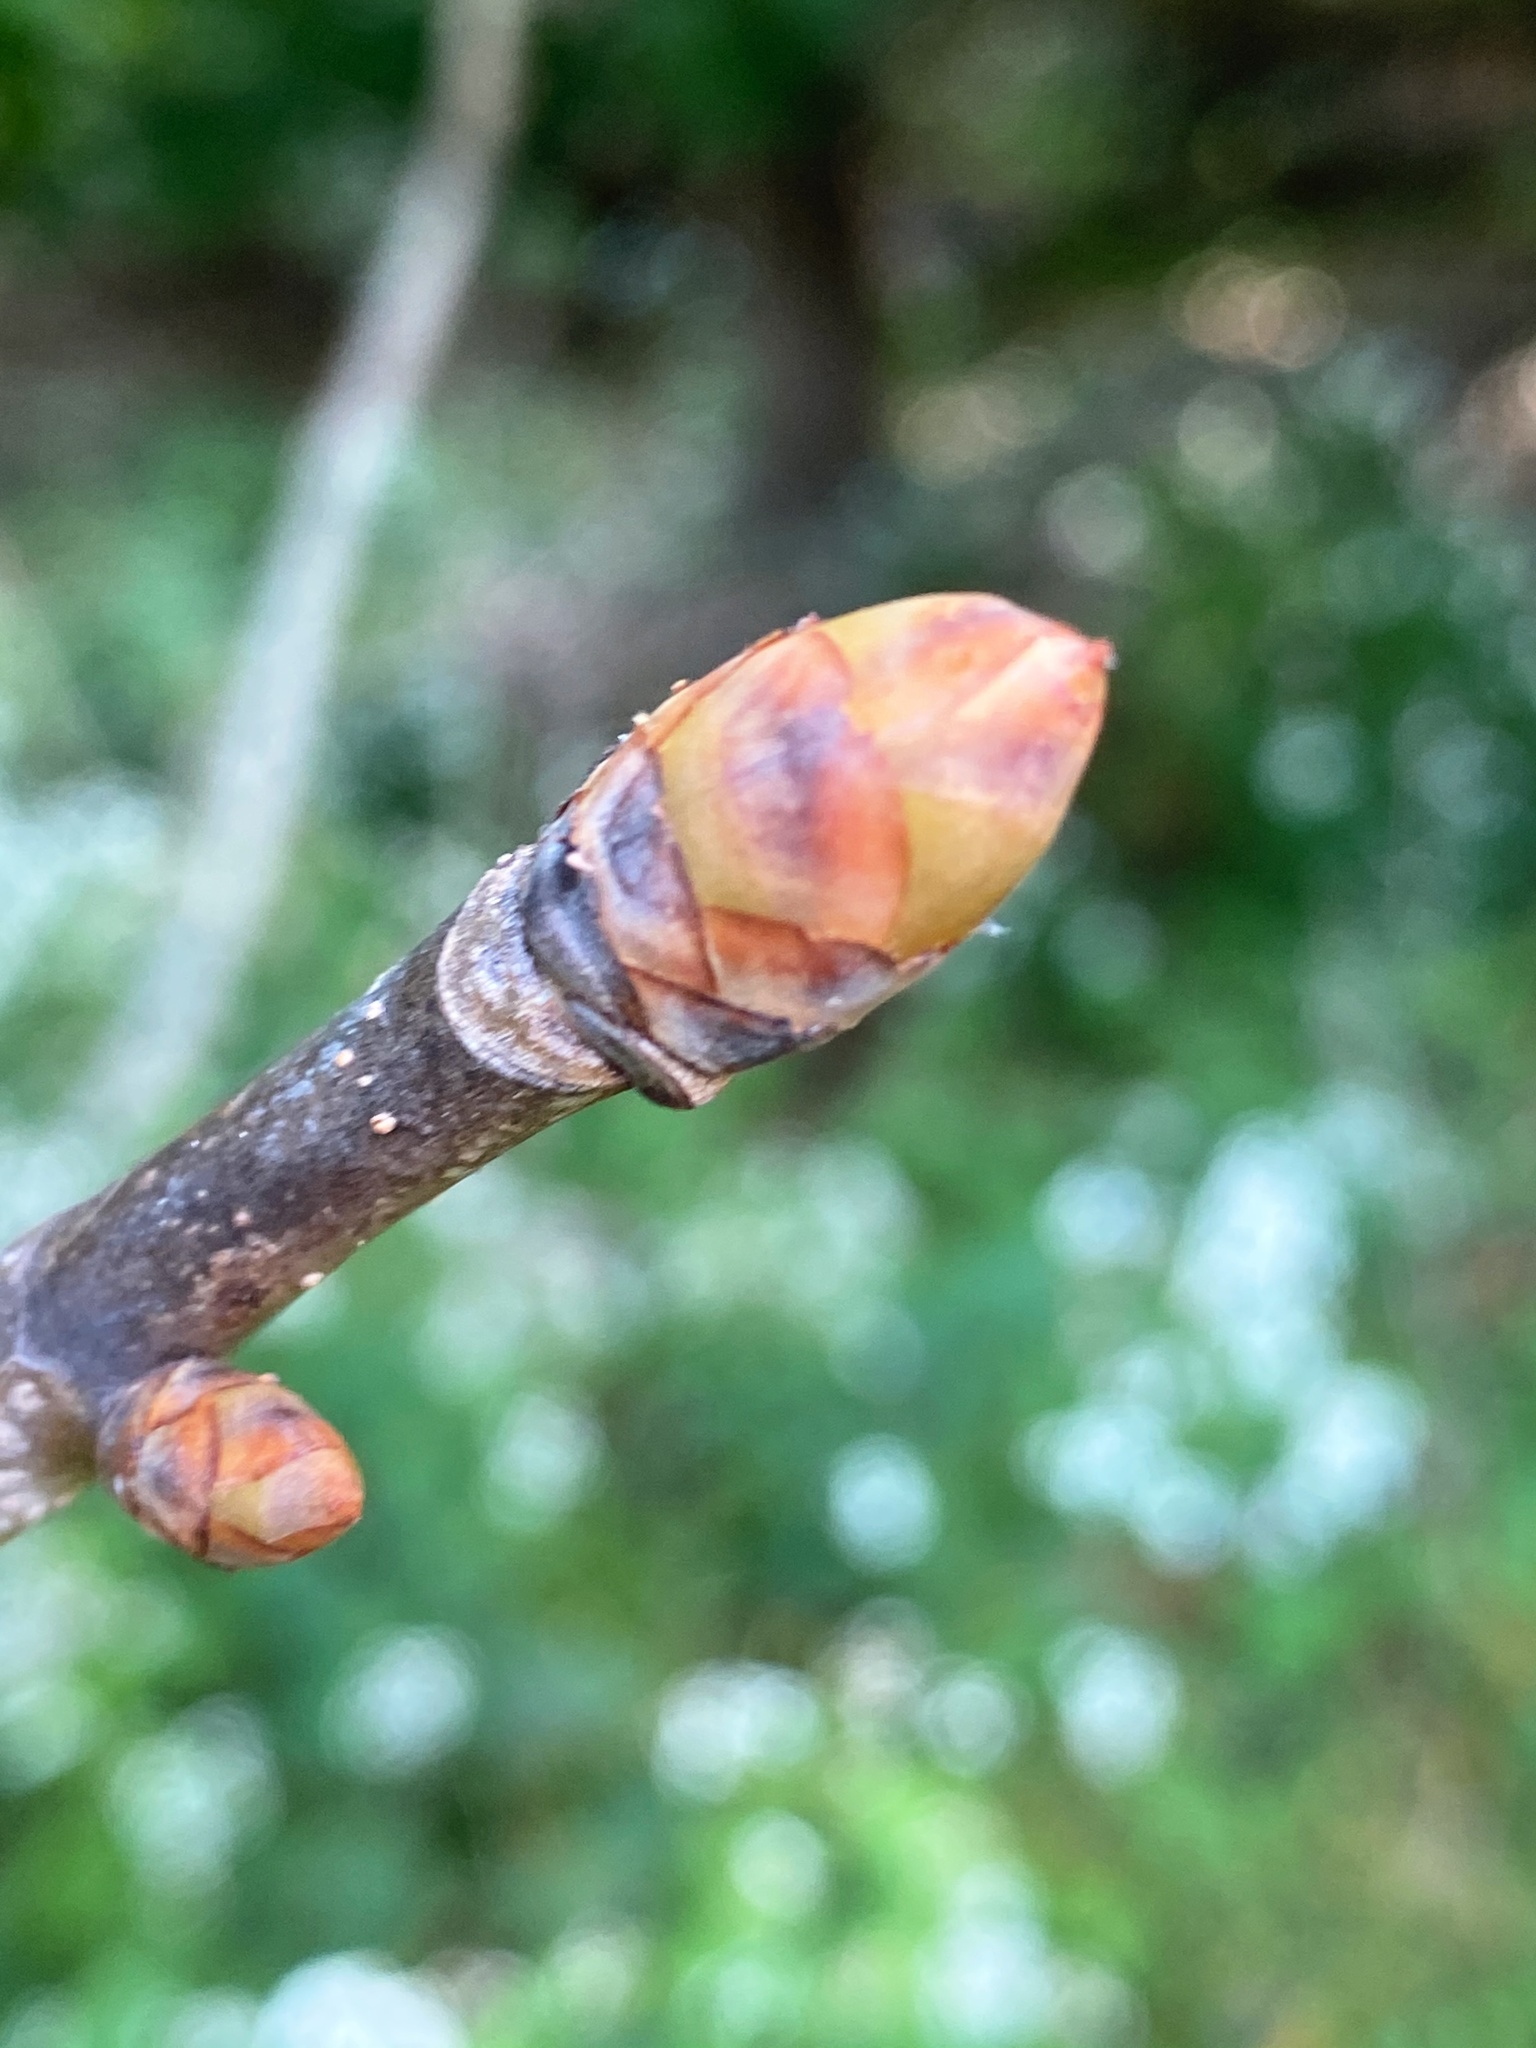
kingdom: Plantae
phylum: Tracheophyta
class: Magnoliopsida
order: Sapindales
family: Sapindaceae
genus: Aesculus
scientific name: Aesculus flava
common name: Yellow buckeye
